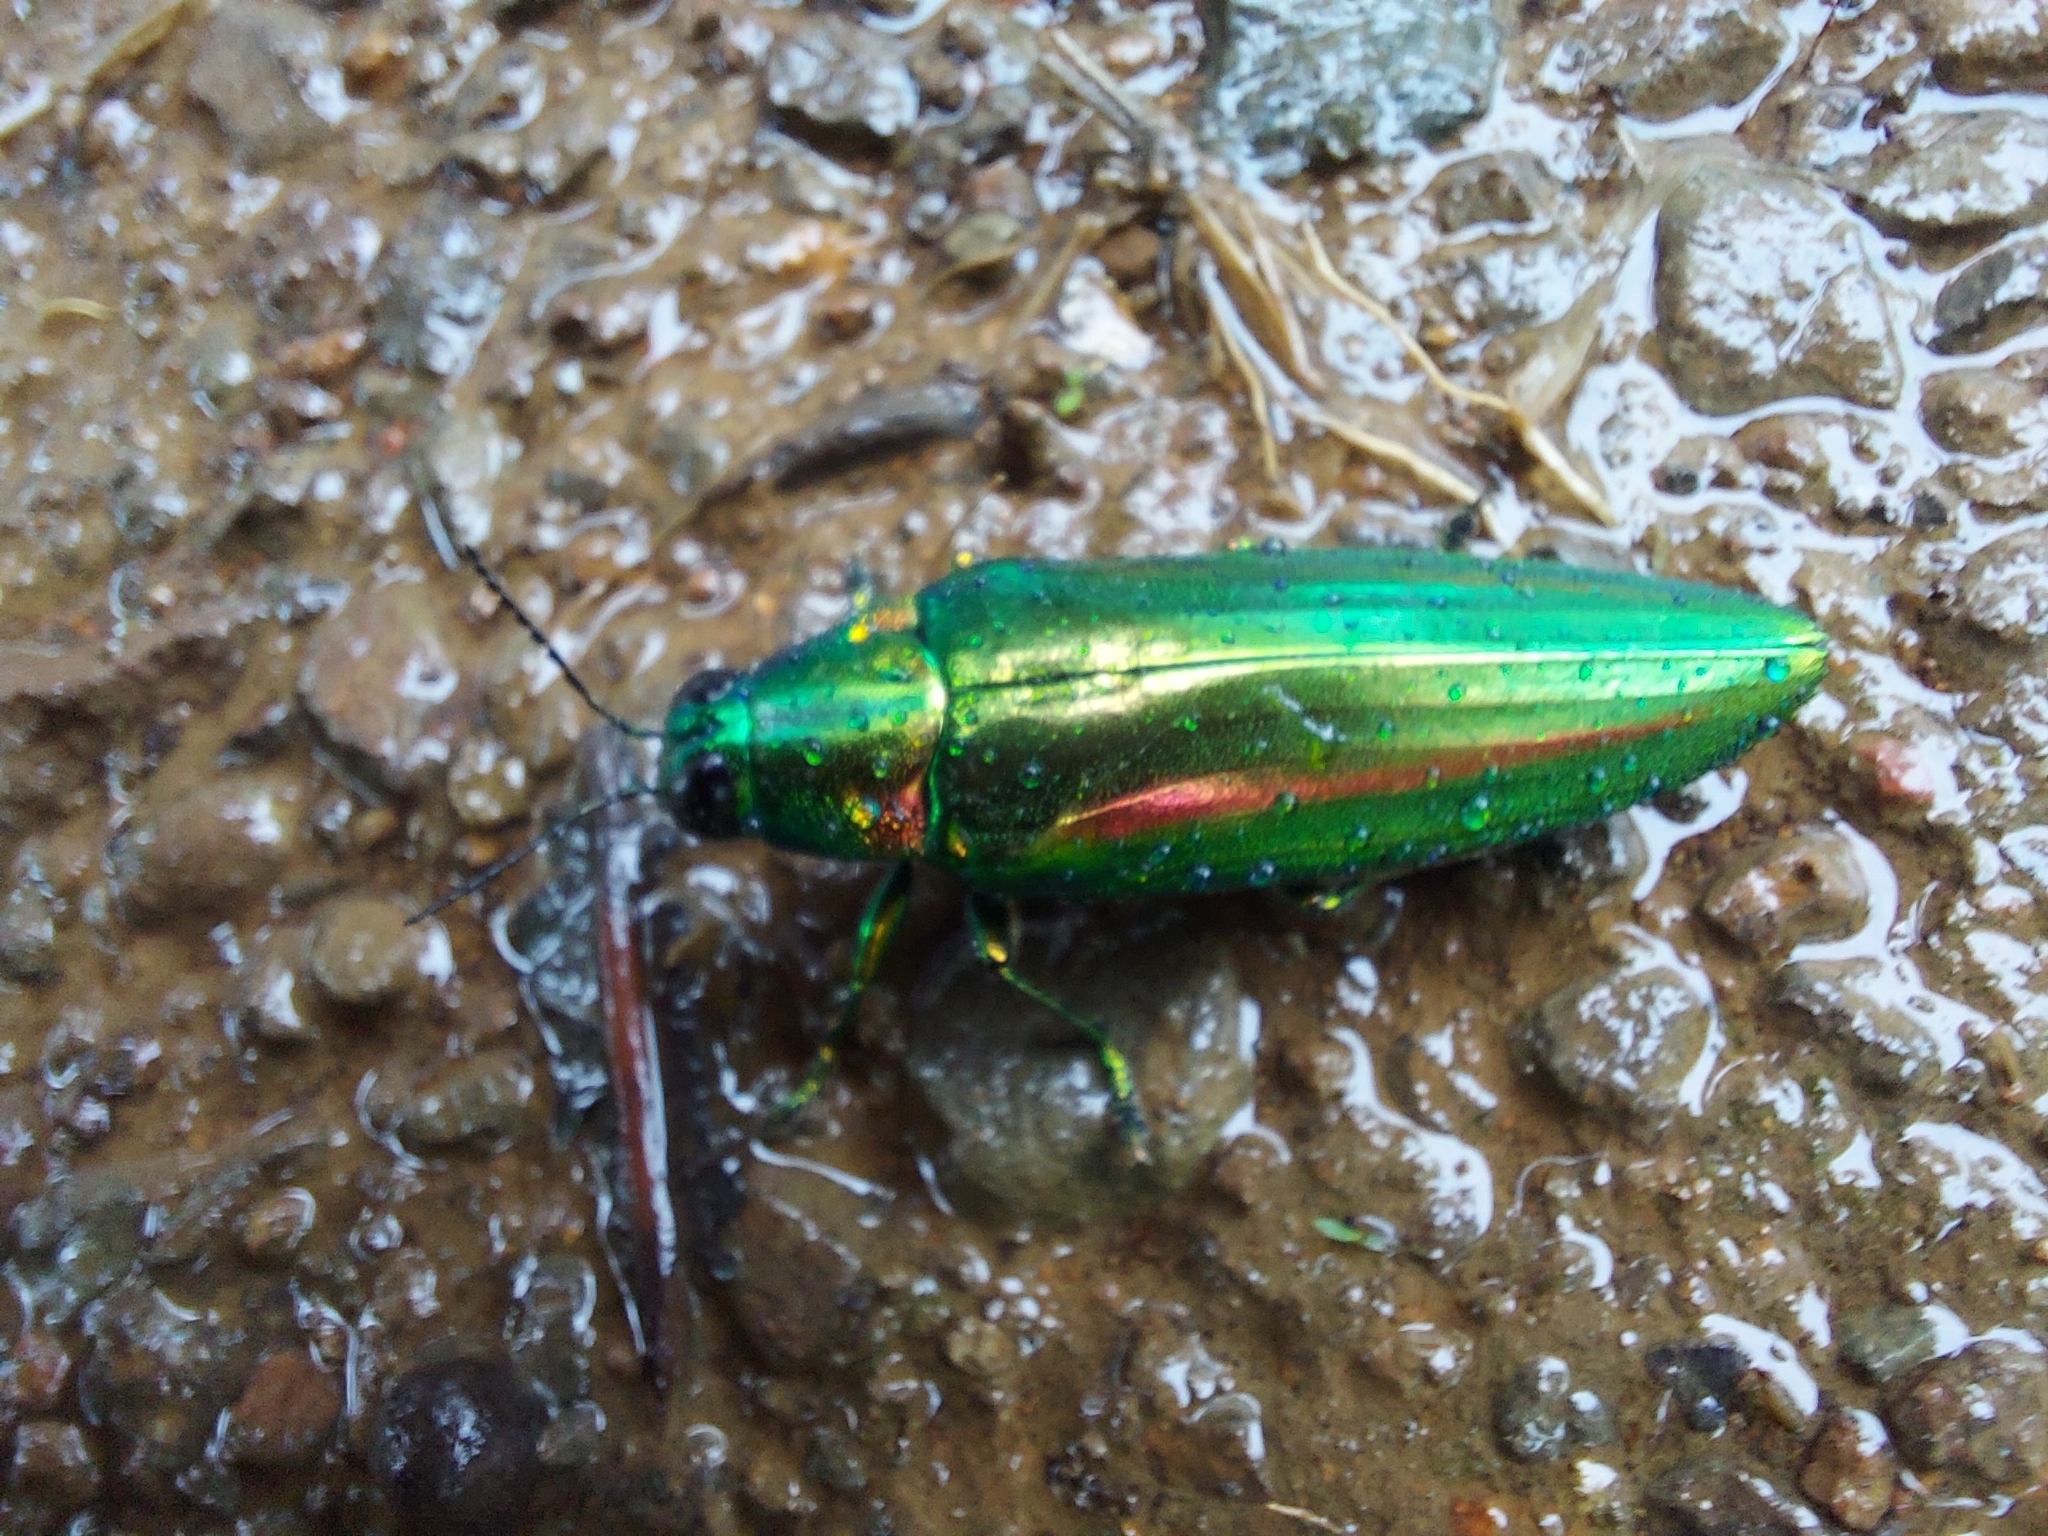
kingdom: Animalia
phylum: Arthropoda
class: Insecta
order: Coleoptera
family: Buprestidae
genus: Chrysochroa
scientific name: Chrysochroa rajah
